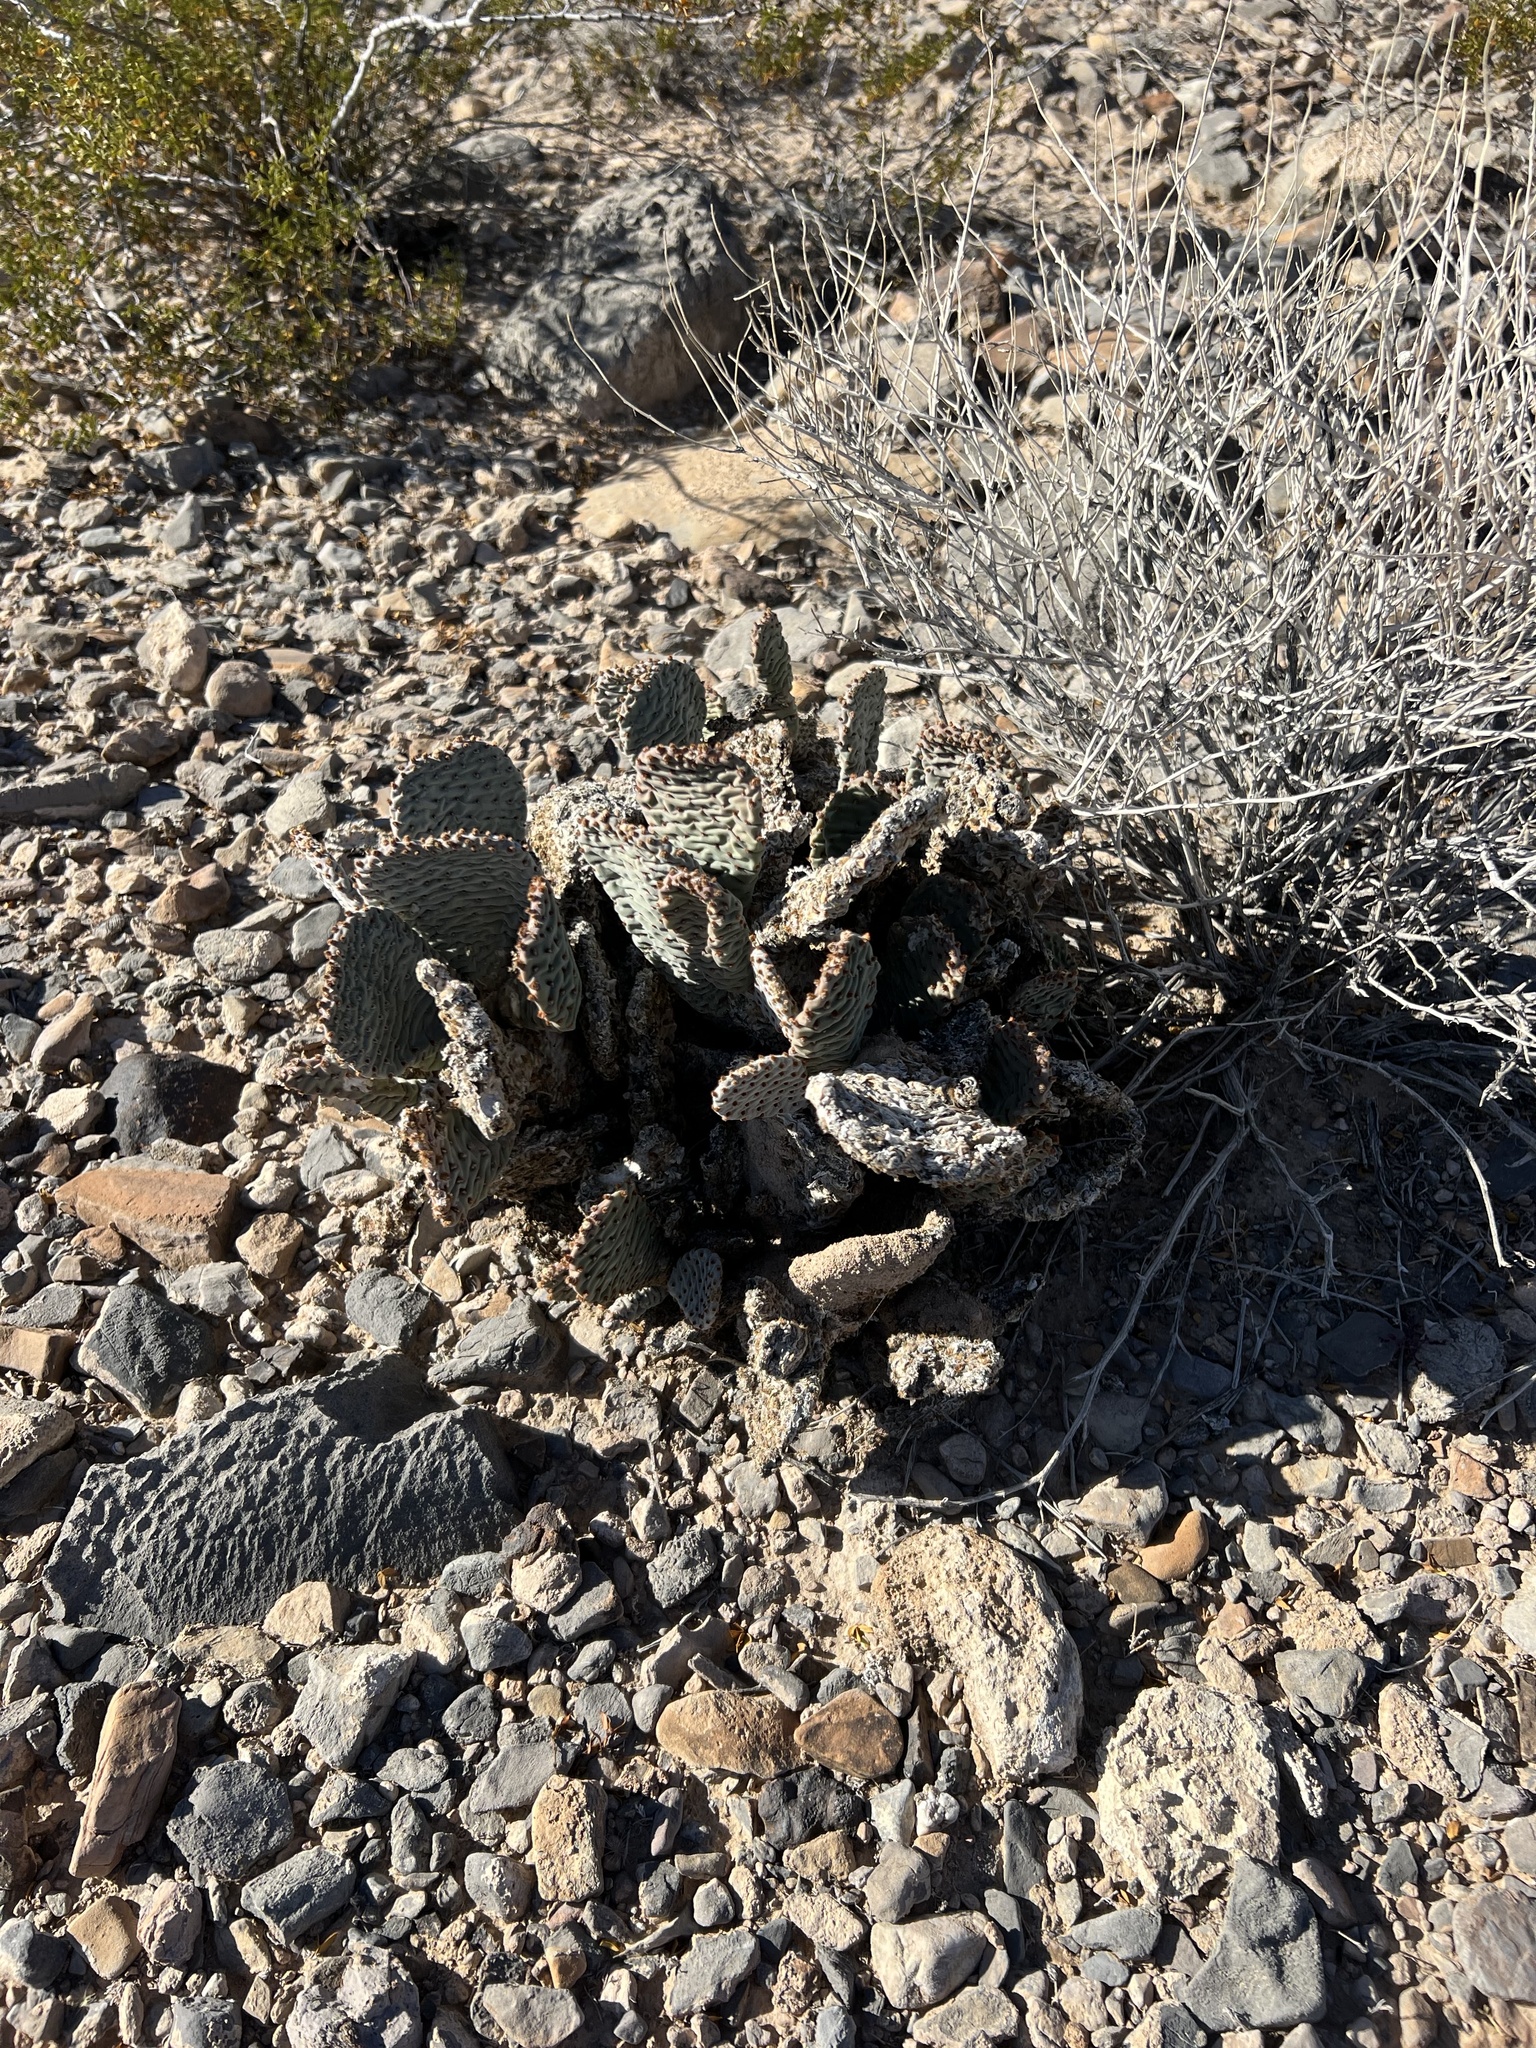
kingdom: Plantae
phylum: Tracheophyta
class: Magnoliopsida
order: Caryophyllales
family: Cactaceae
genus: Opuntia
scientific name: Opuntia basilaris
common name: Beavertail prickly-pear
